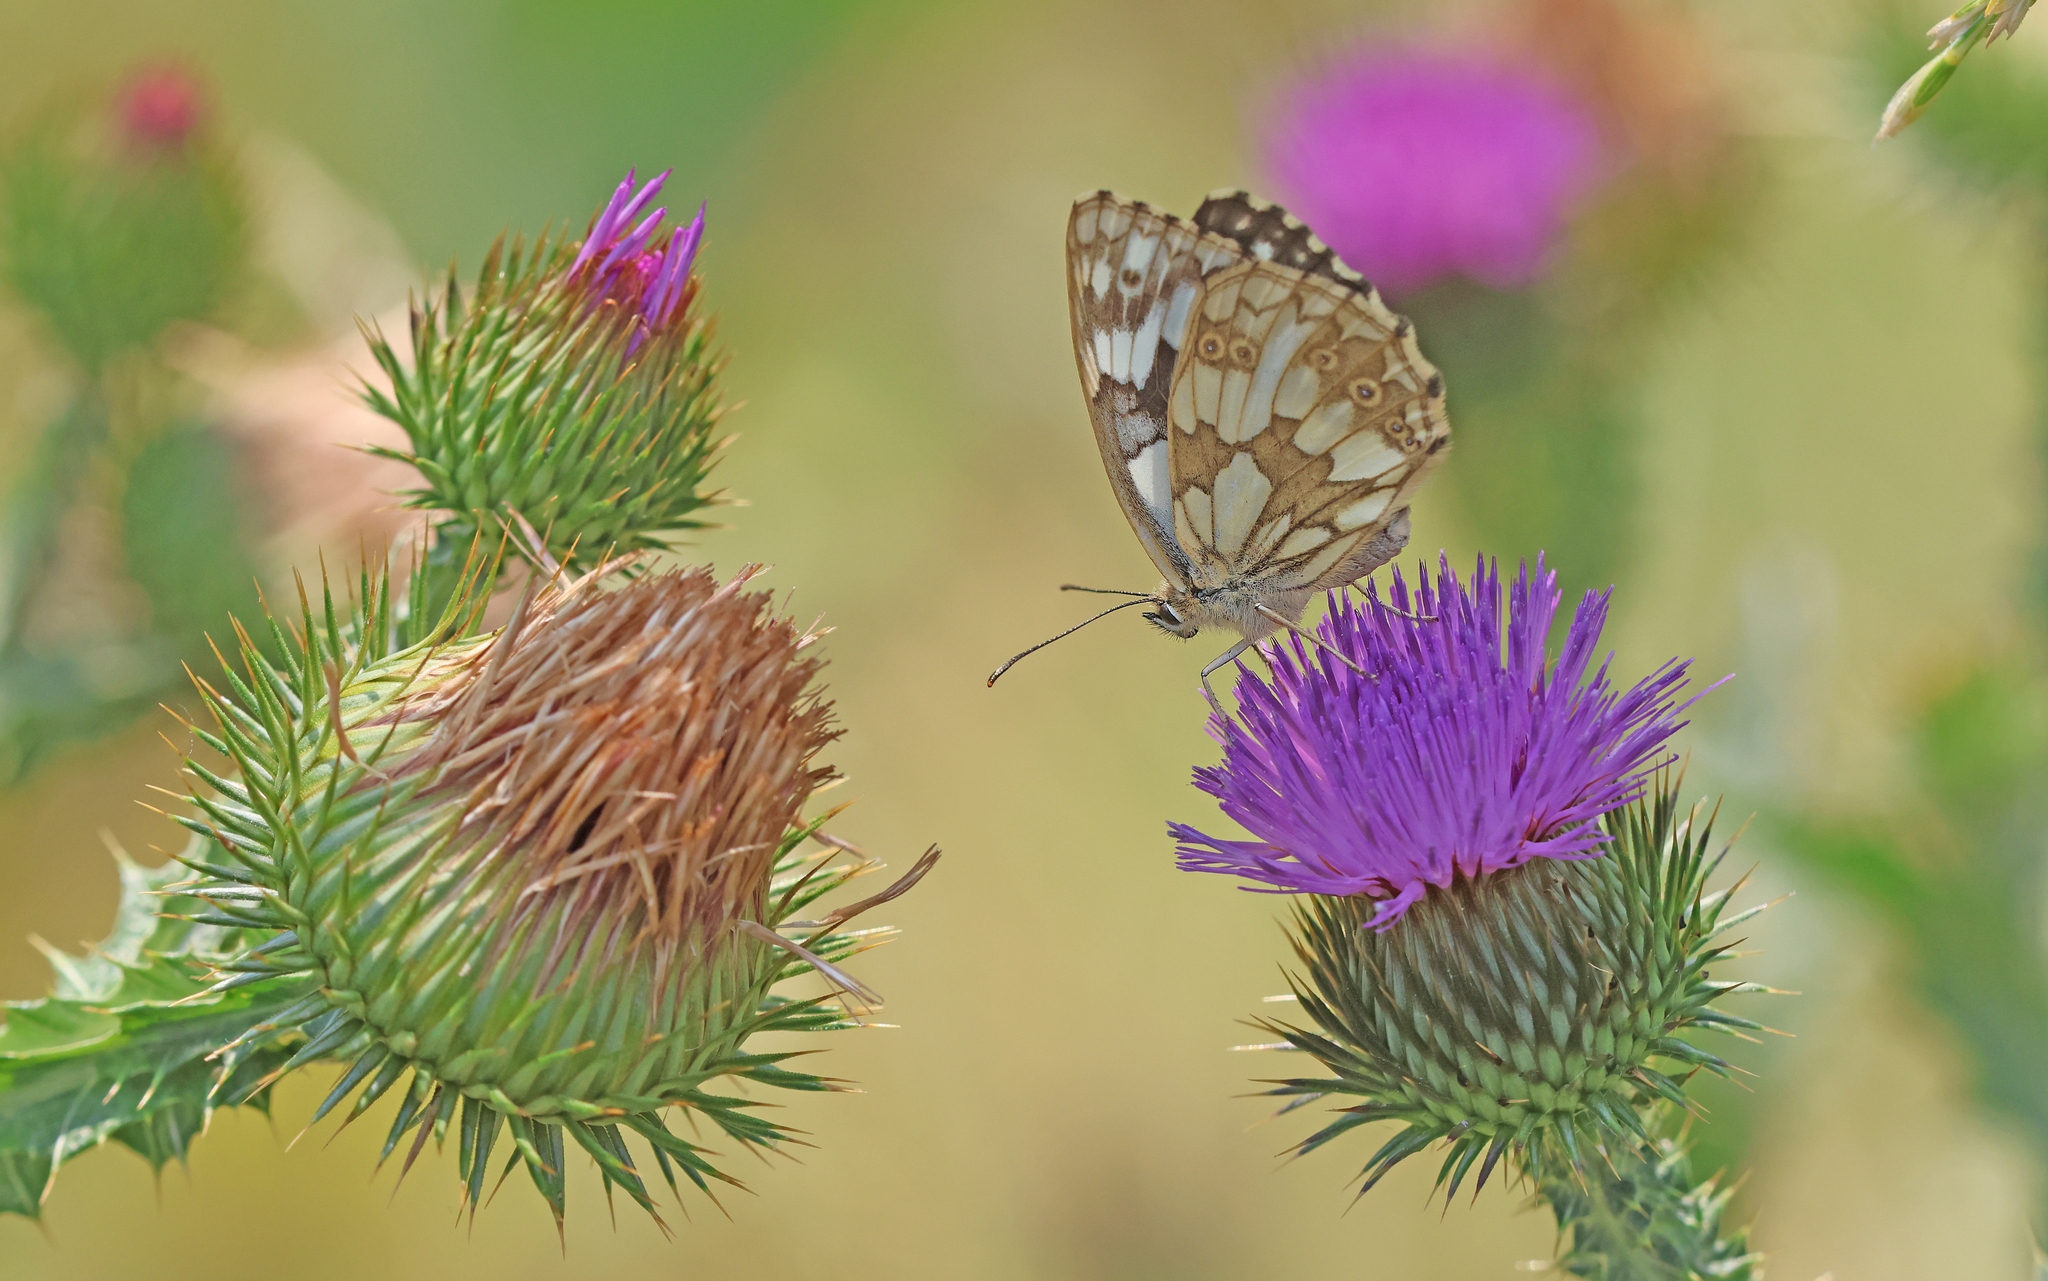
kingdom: Animalia
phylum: Arthropoda
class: Insecta
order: Lepidoptera
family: Nymphalidae
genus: Melanargia
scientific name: Melanargia galathea
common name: Marbled white
